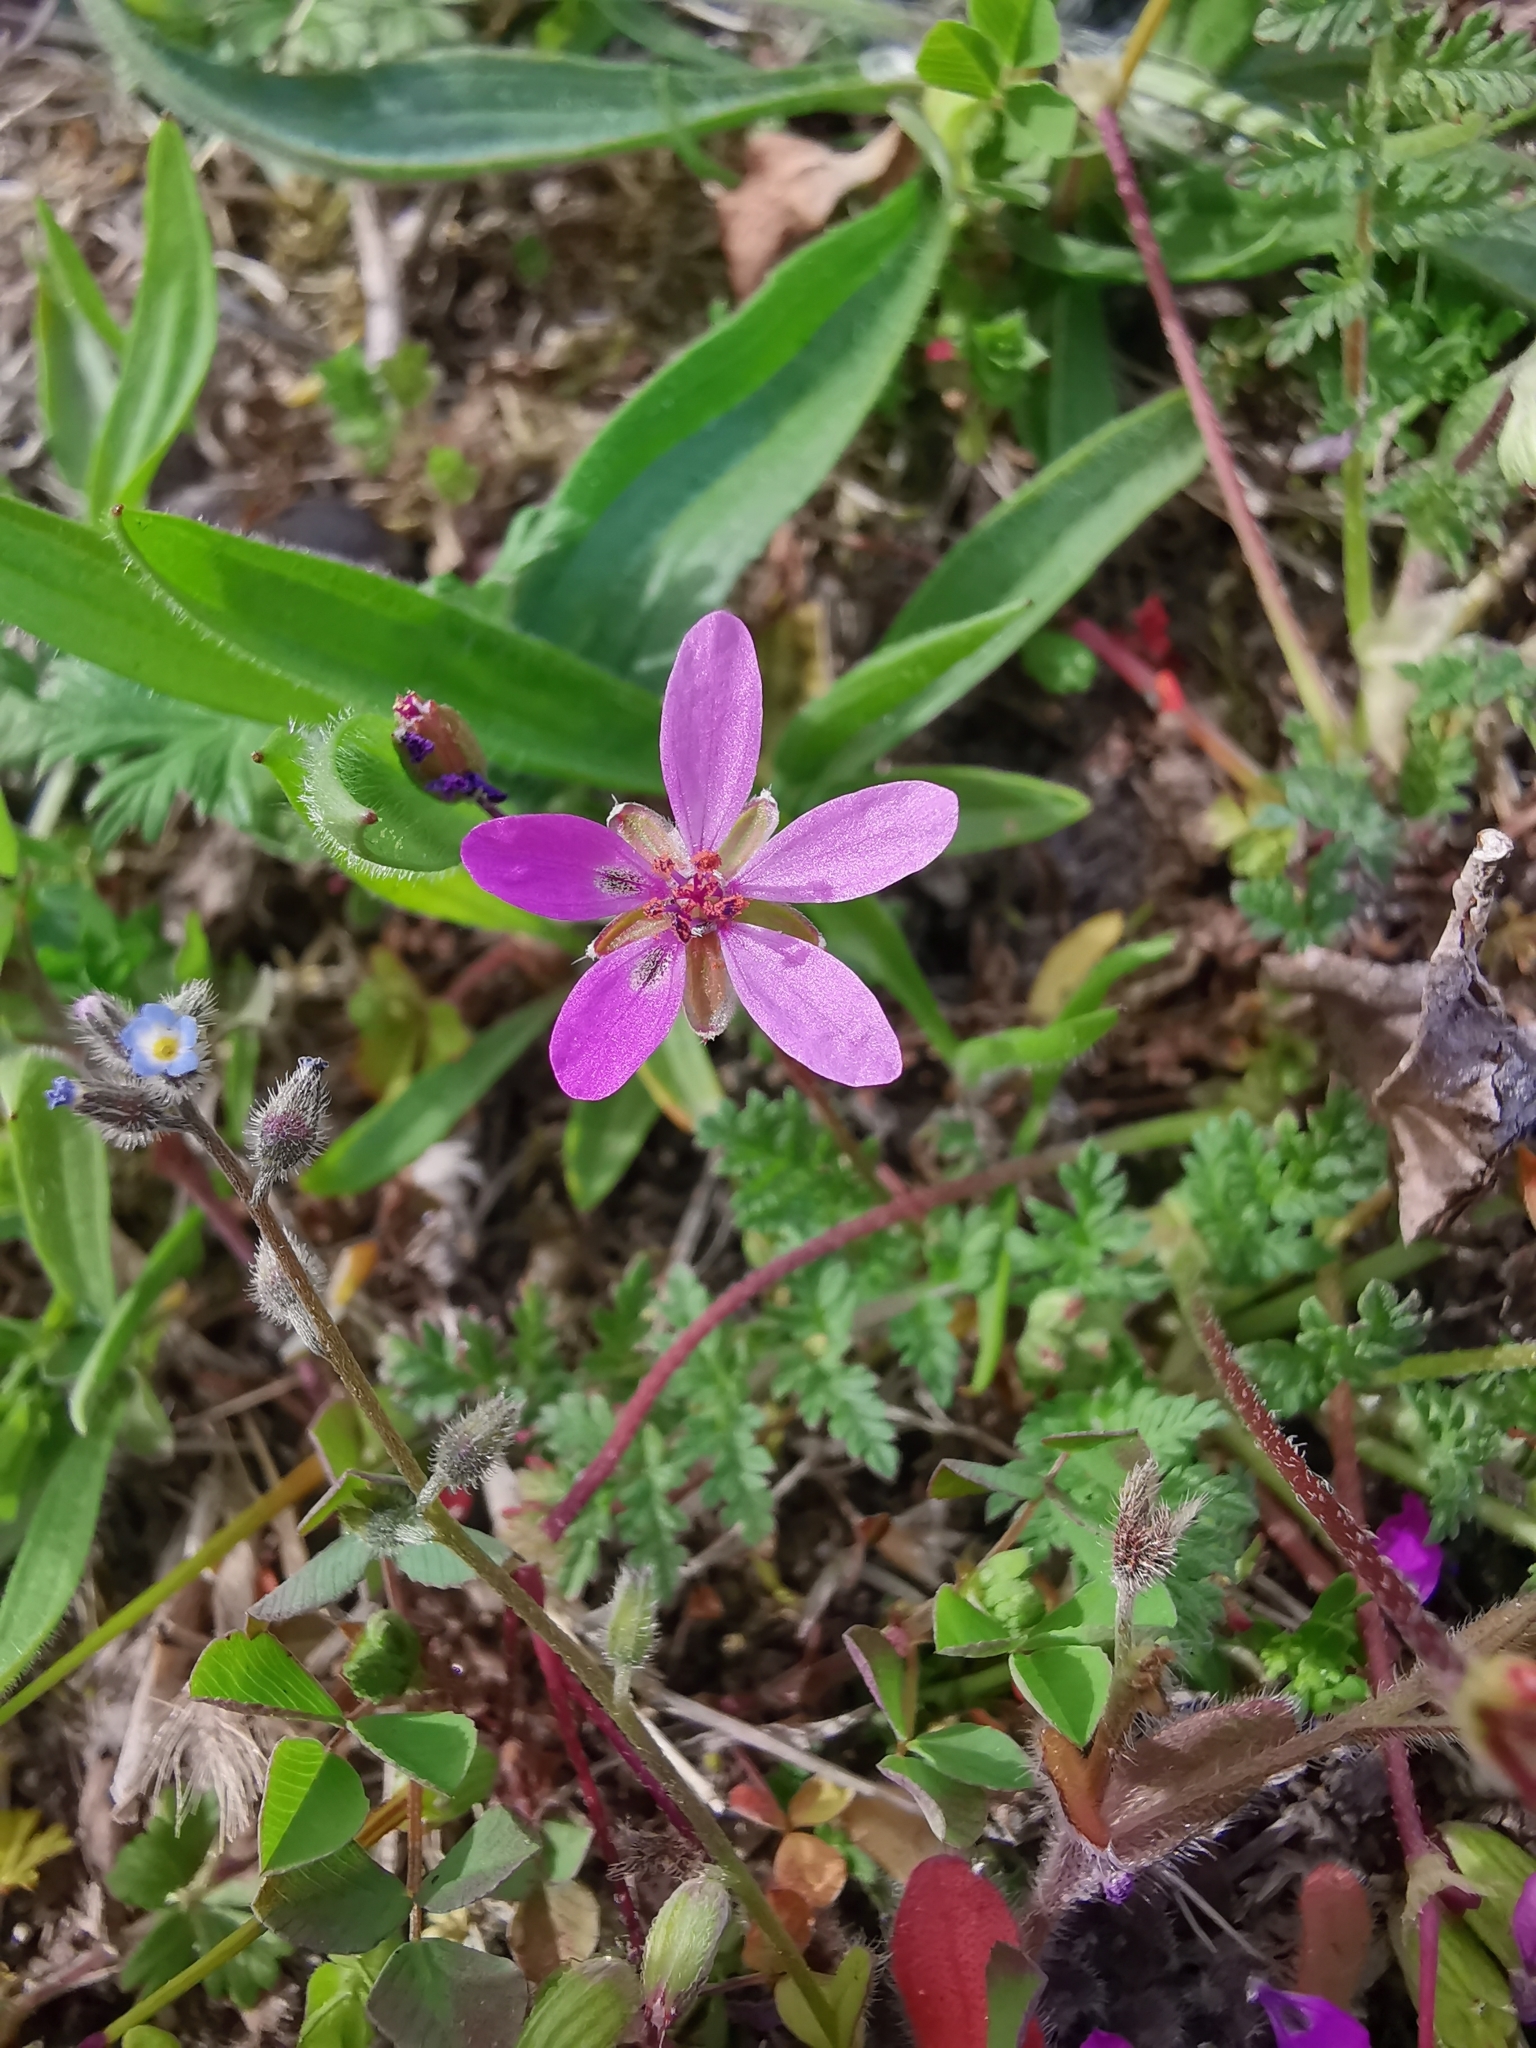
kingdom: Plantae
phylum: Tracheophyta
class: Magnoliopsida
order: Geraniales
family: Geraniaceae
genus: Erodium
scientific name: Erodium cicutarium
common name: Common stork's-bill
